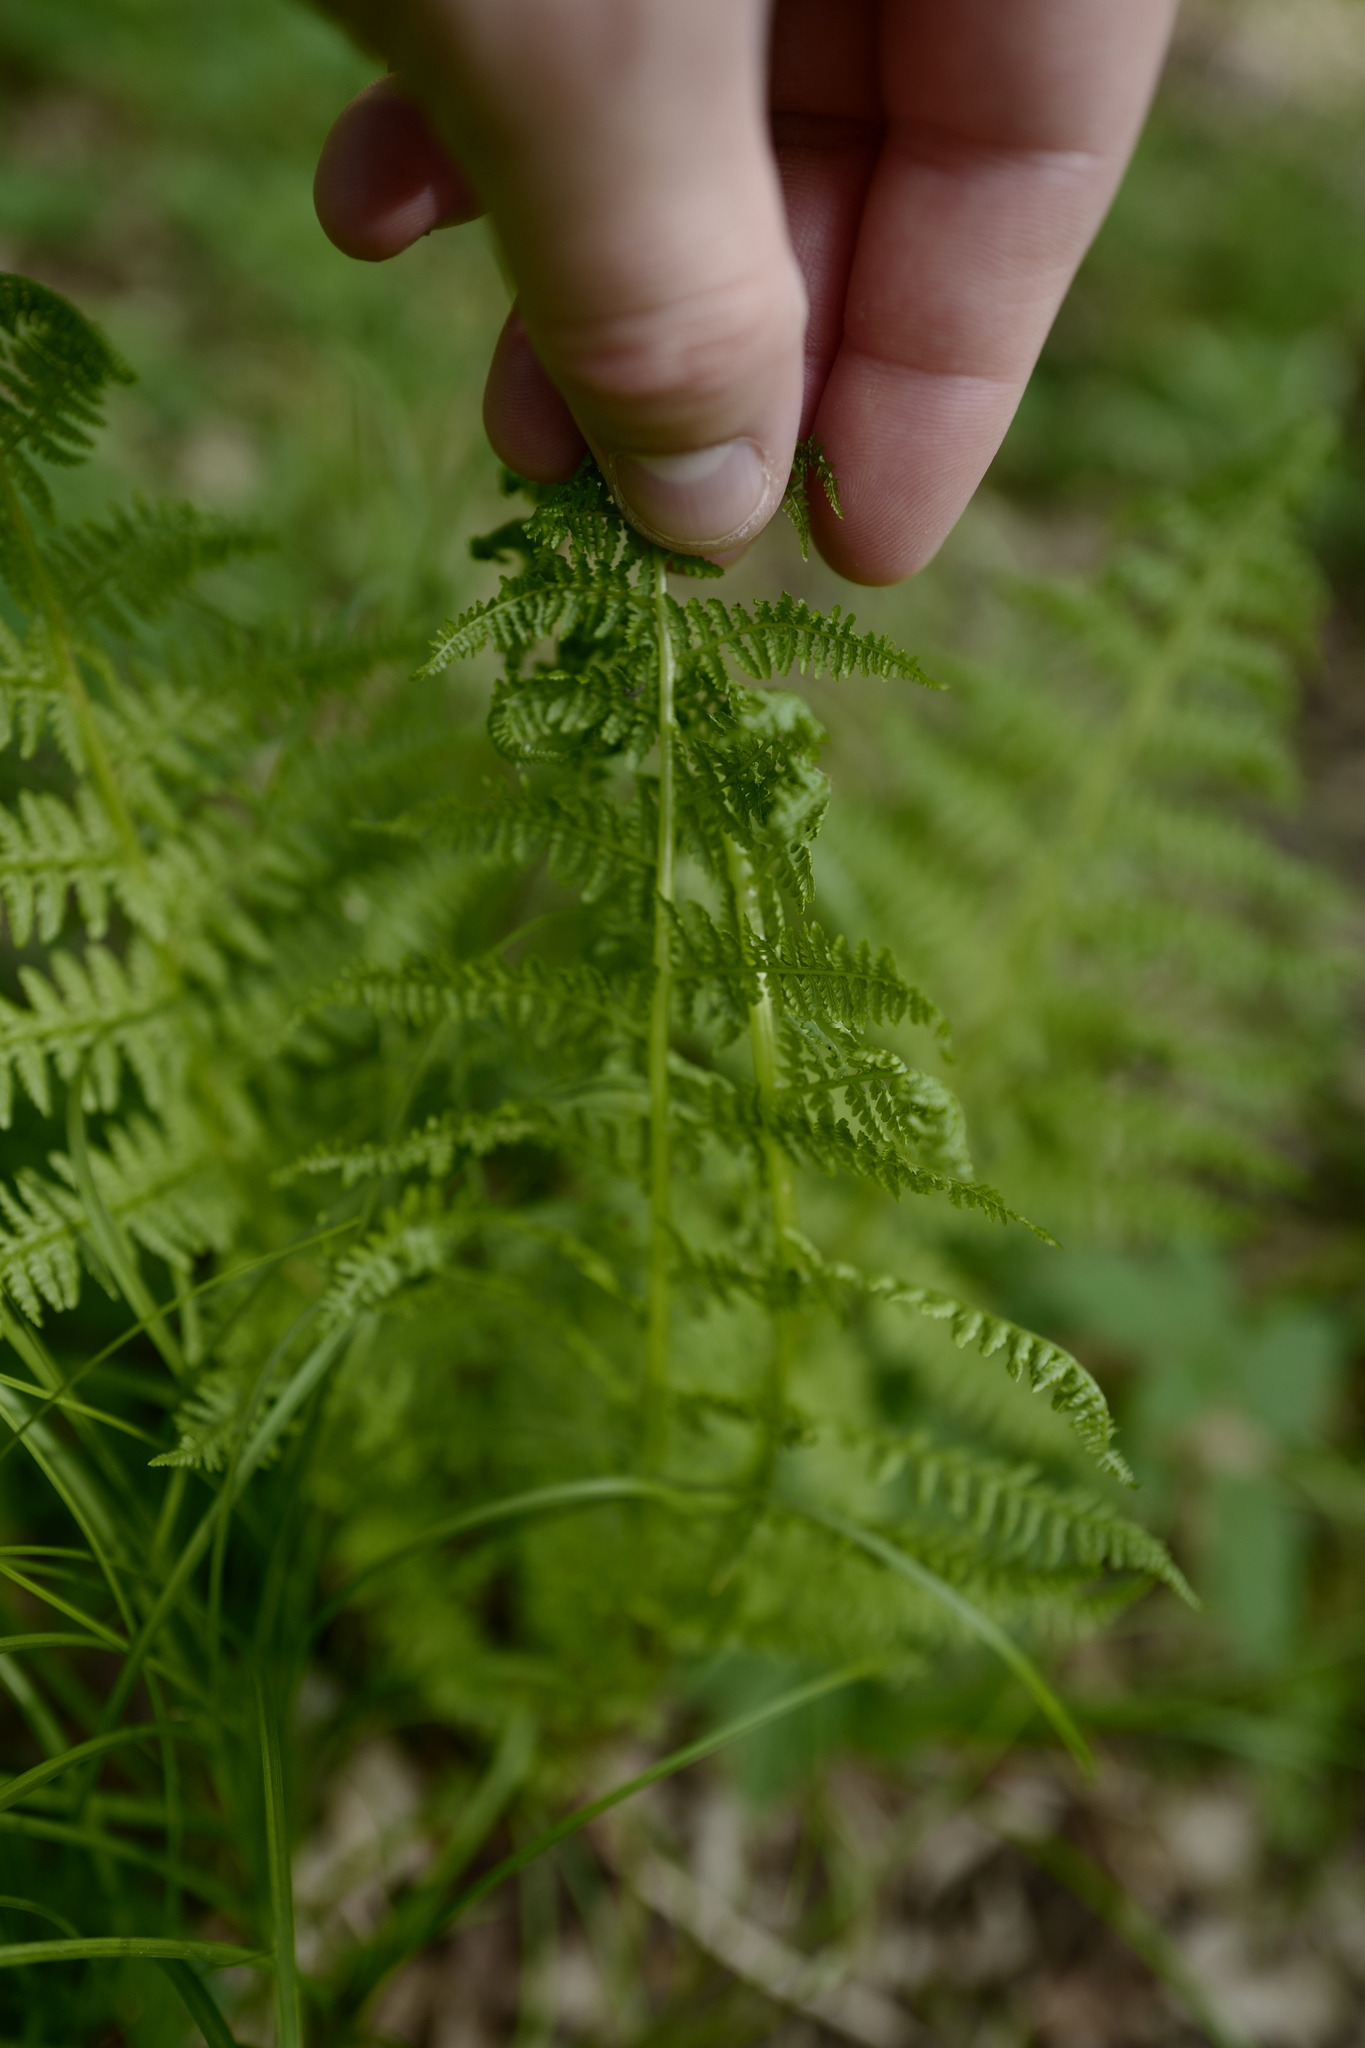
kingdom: Plantae
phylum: Tracheophyta
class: Polypodiopsida
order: Polypodiales
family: Athyriaceae
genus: Athyrium
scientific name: Athyrium filix-femina
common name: Lady fern
